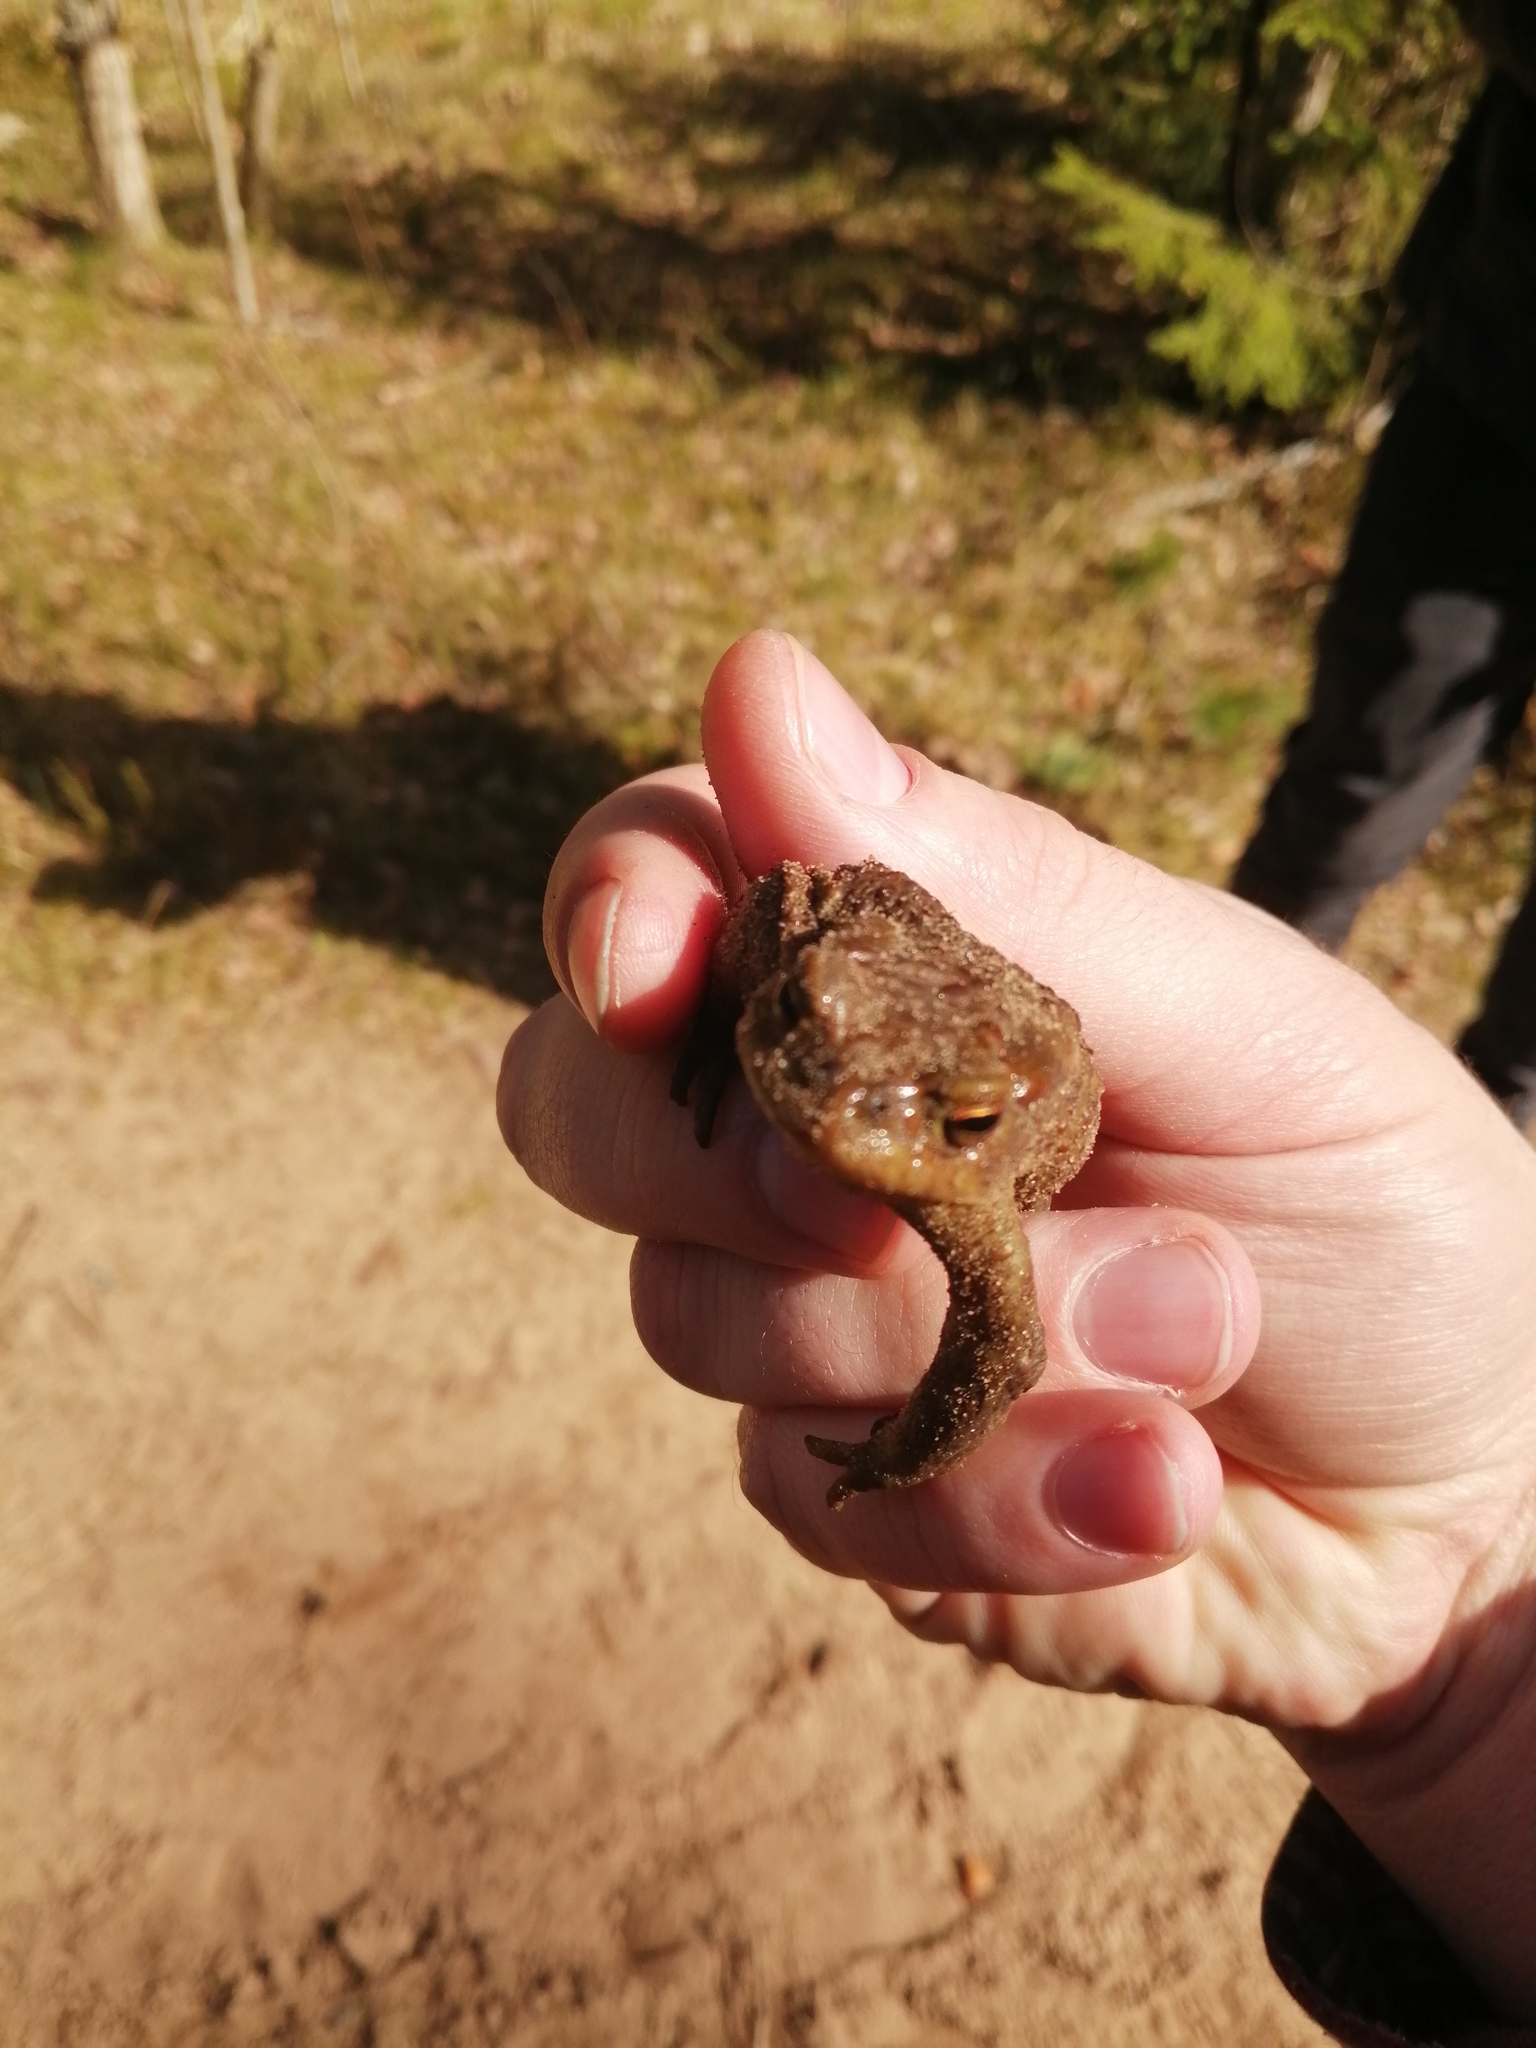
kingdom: Animalia
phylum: Chordata
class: Amphibia
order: Anura
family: Bufonidae
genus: Bufo
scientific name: Bufo bufo
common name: Common toad
